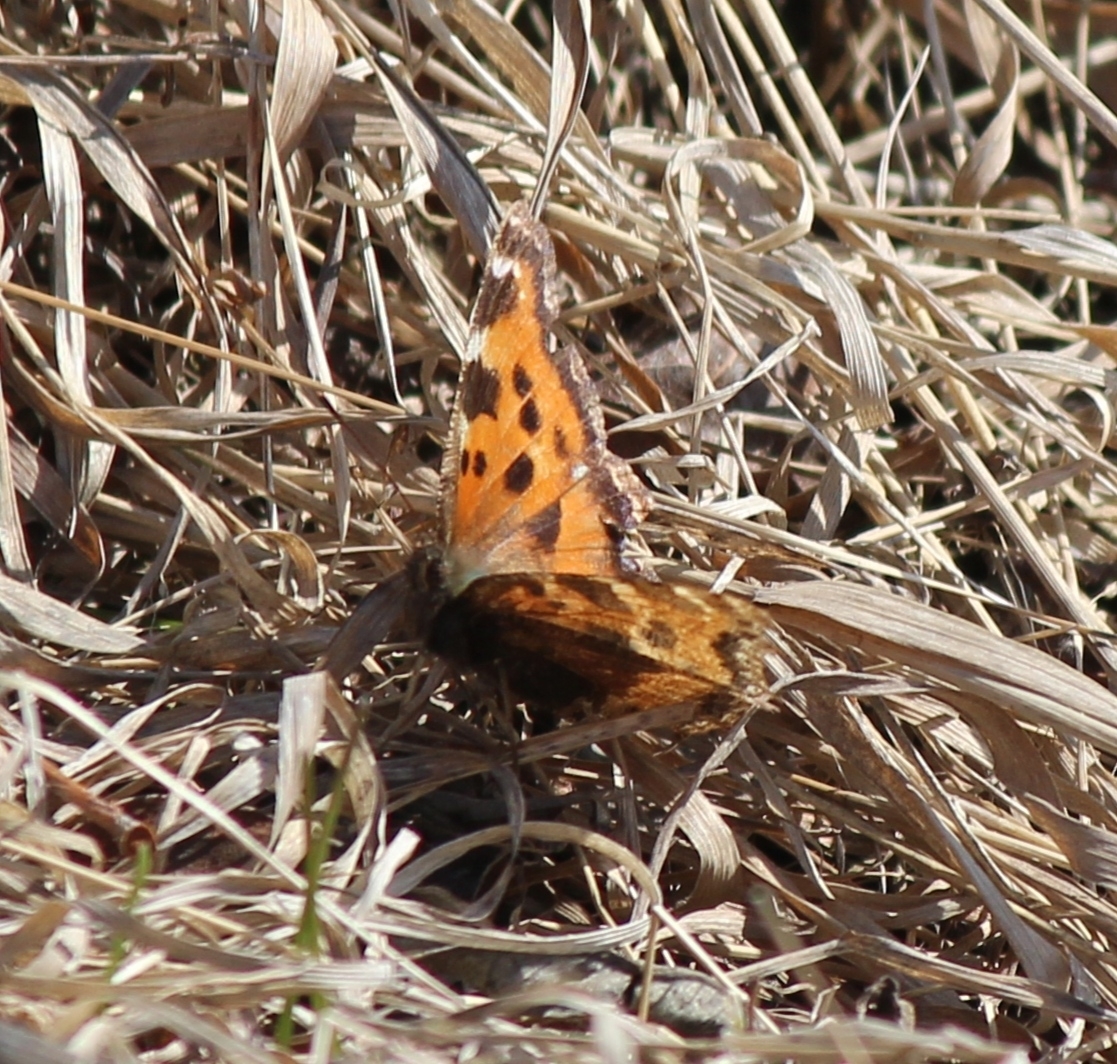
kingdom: Animalia
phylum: Arthropoda
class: Insecta
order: Lepidoptera
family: Nymphalidae
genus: Nymphalis
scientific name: Nymphalis xanthomelas
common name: Scarce tortoiseshell
